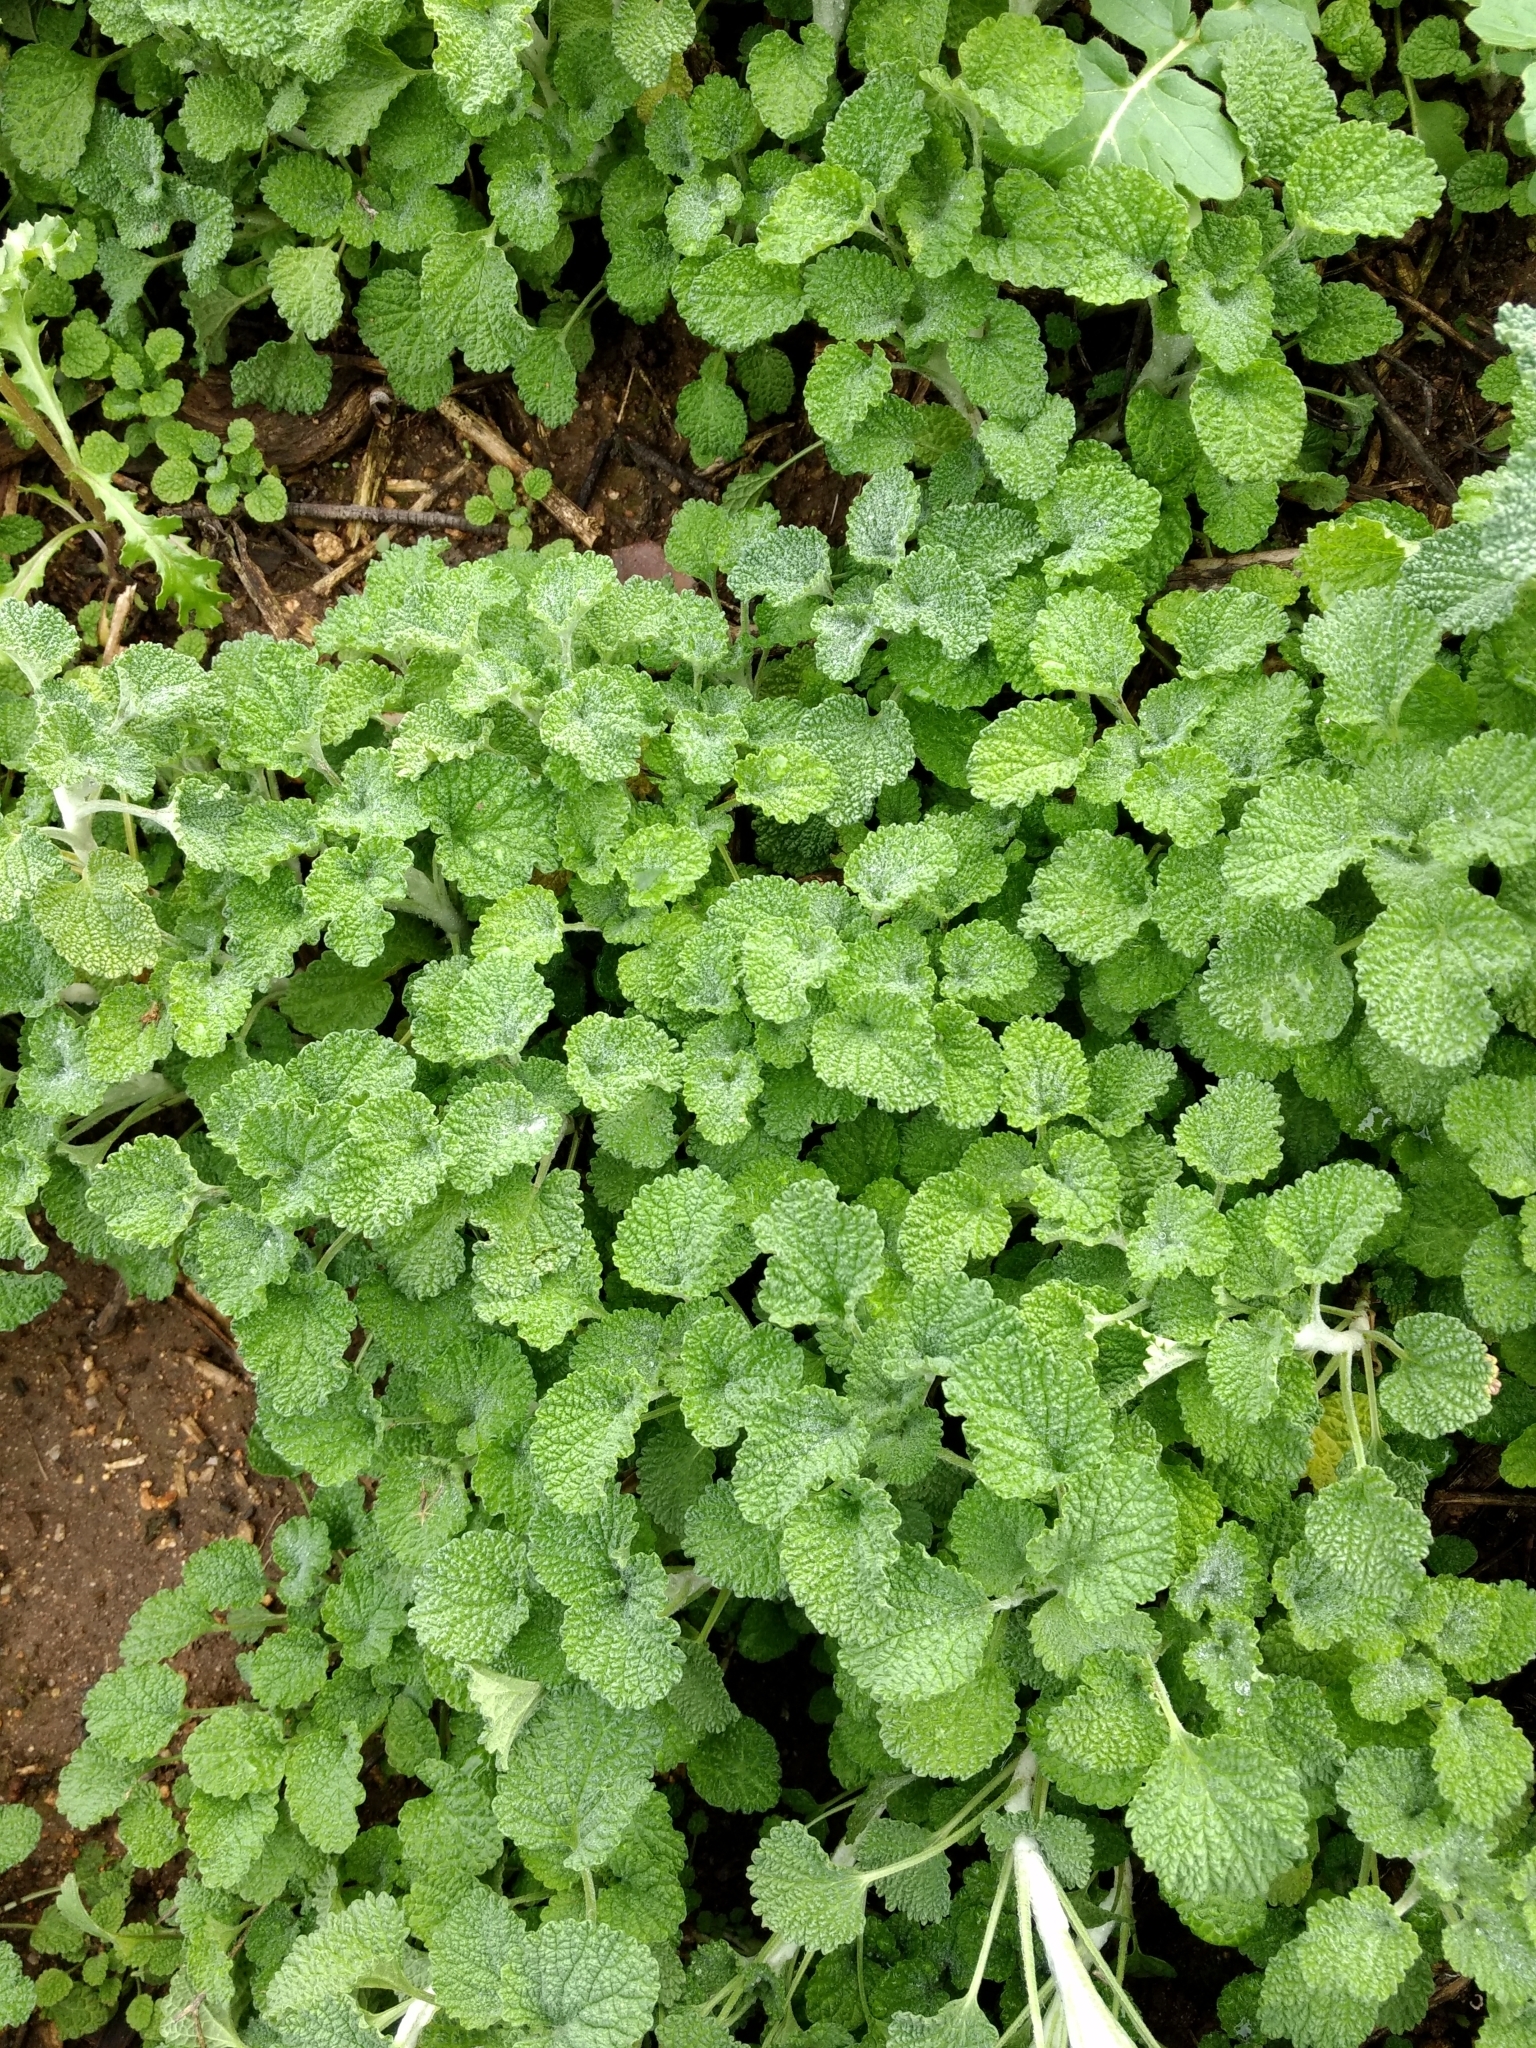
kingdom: Plantae
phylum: Tracheophyta
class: Magnoliopsida
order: Lamiales
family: Lamiaceae
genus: Marrubium
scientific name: Marrubium vulgare
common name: Horehound
